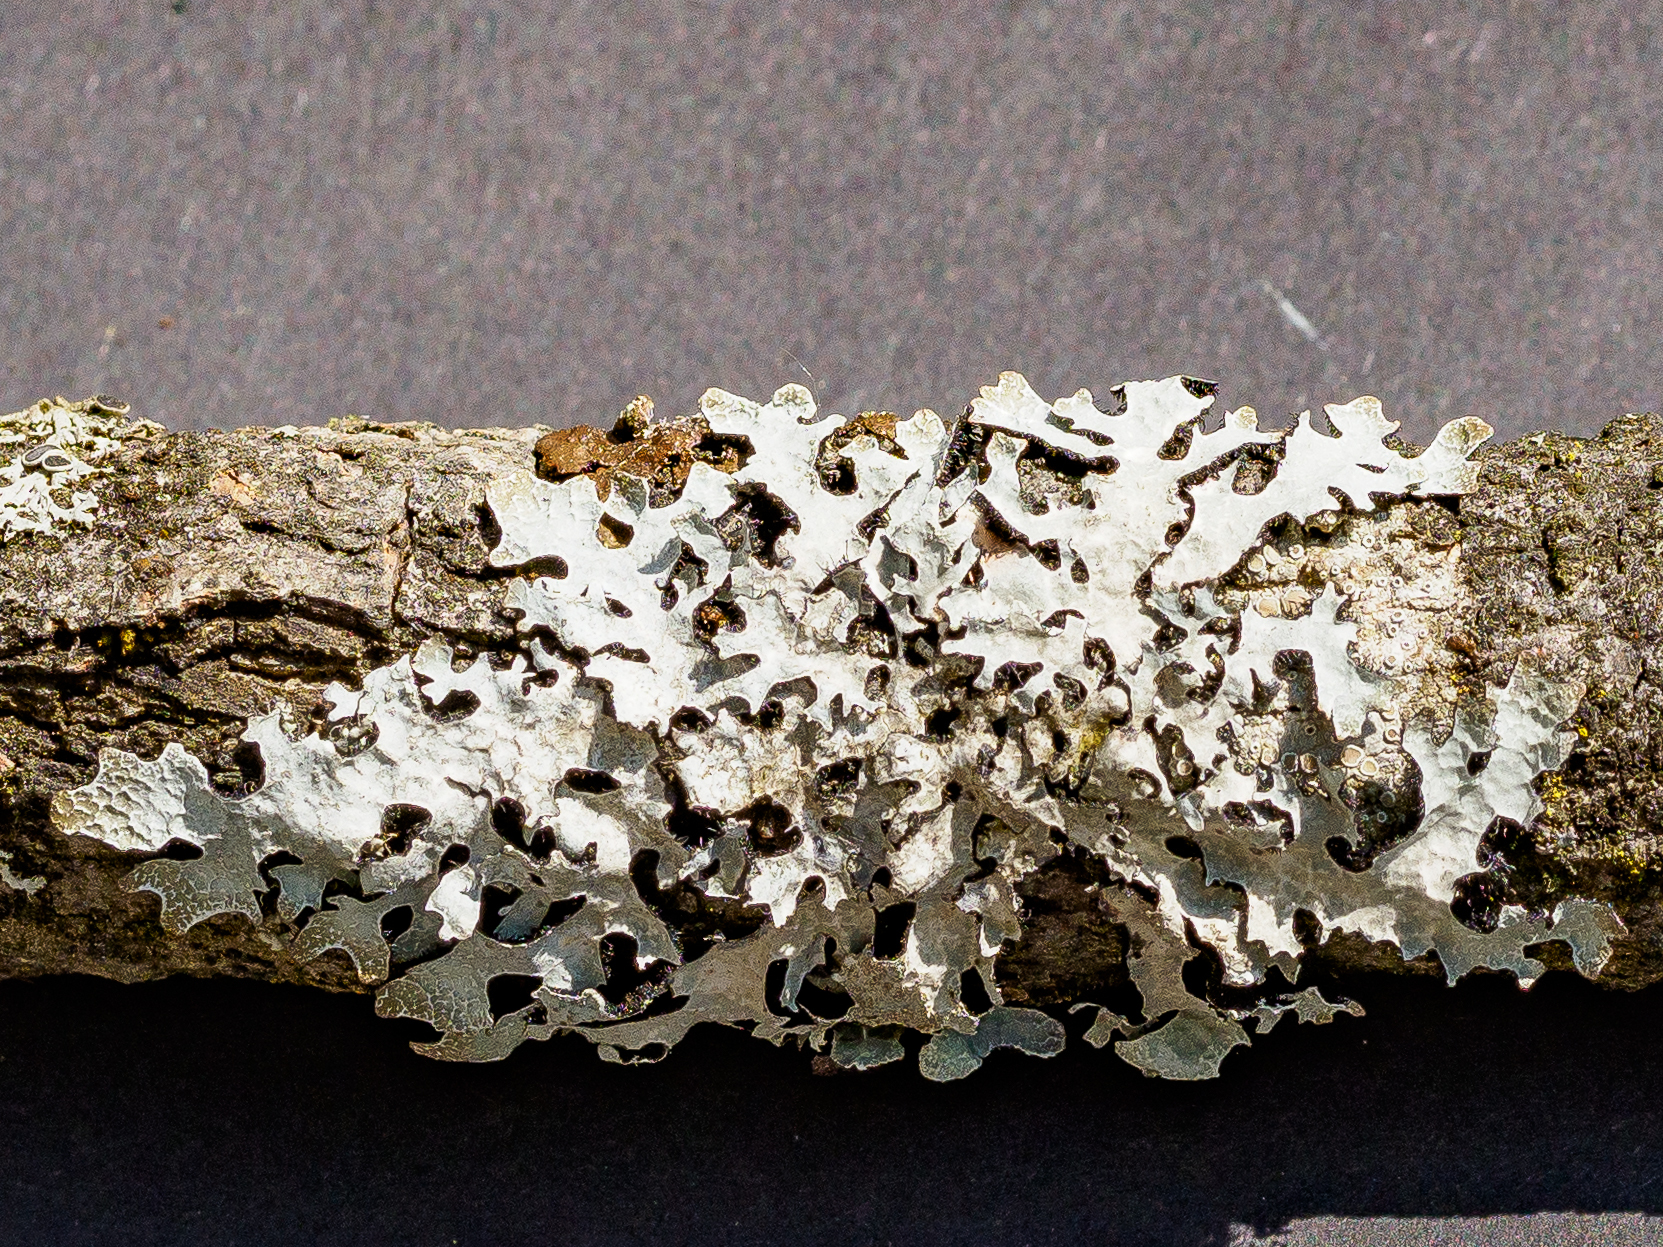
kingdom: Fungi
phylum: Ascomycota
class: Lecanoromycetes
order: Lecanorales
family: Parmeliaceae
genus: Parmelia
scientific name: Parmelia sulcata
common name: Netted shield lichen
